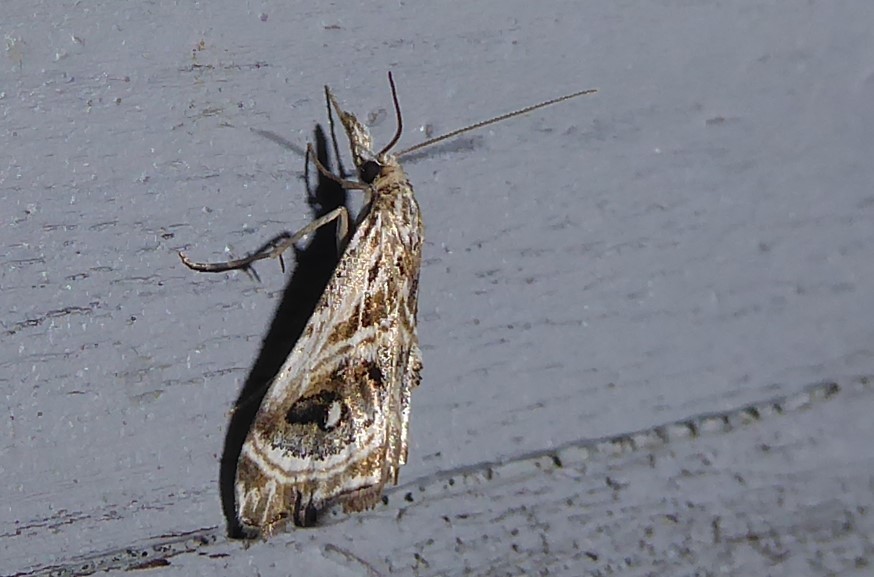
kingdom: Animalia
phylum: Arthropoda
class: Insecta
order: Lepidoptera
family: Crambidae
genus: Gadira
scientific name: Gadira acerella
